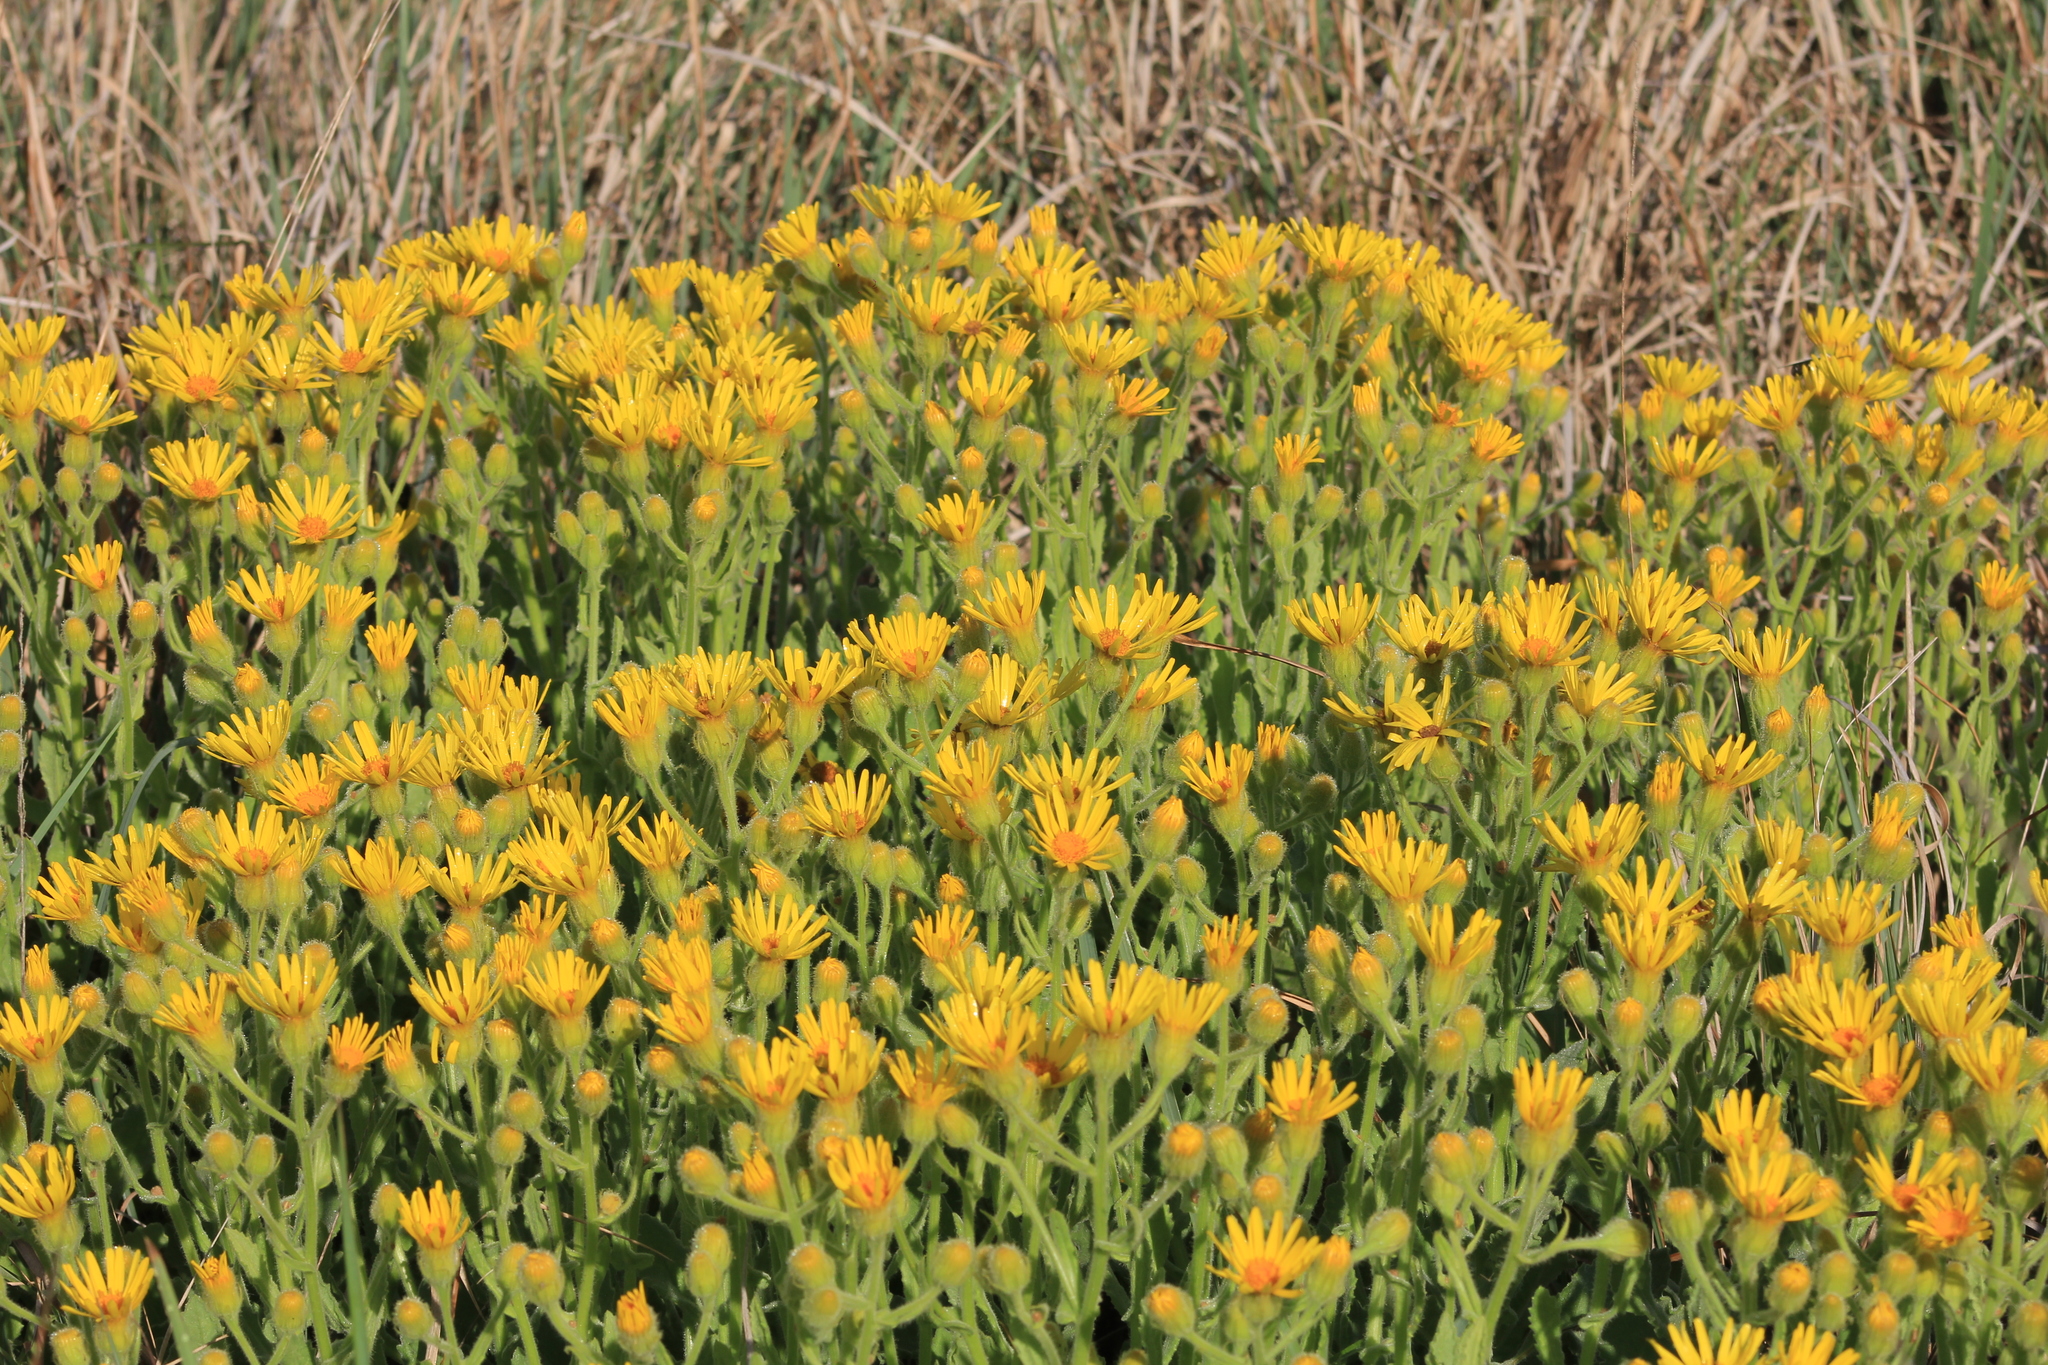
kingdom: Plantae
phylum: Tracheophyta
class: Magnoliopsida
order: Asterales
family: Asteraceae
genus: Senecio
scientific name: Senecio selloi
